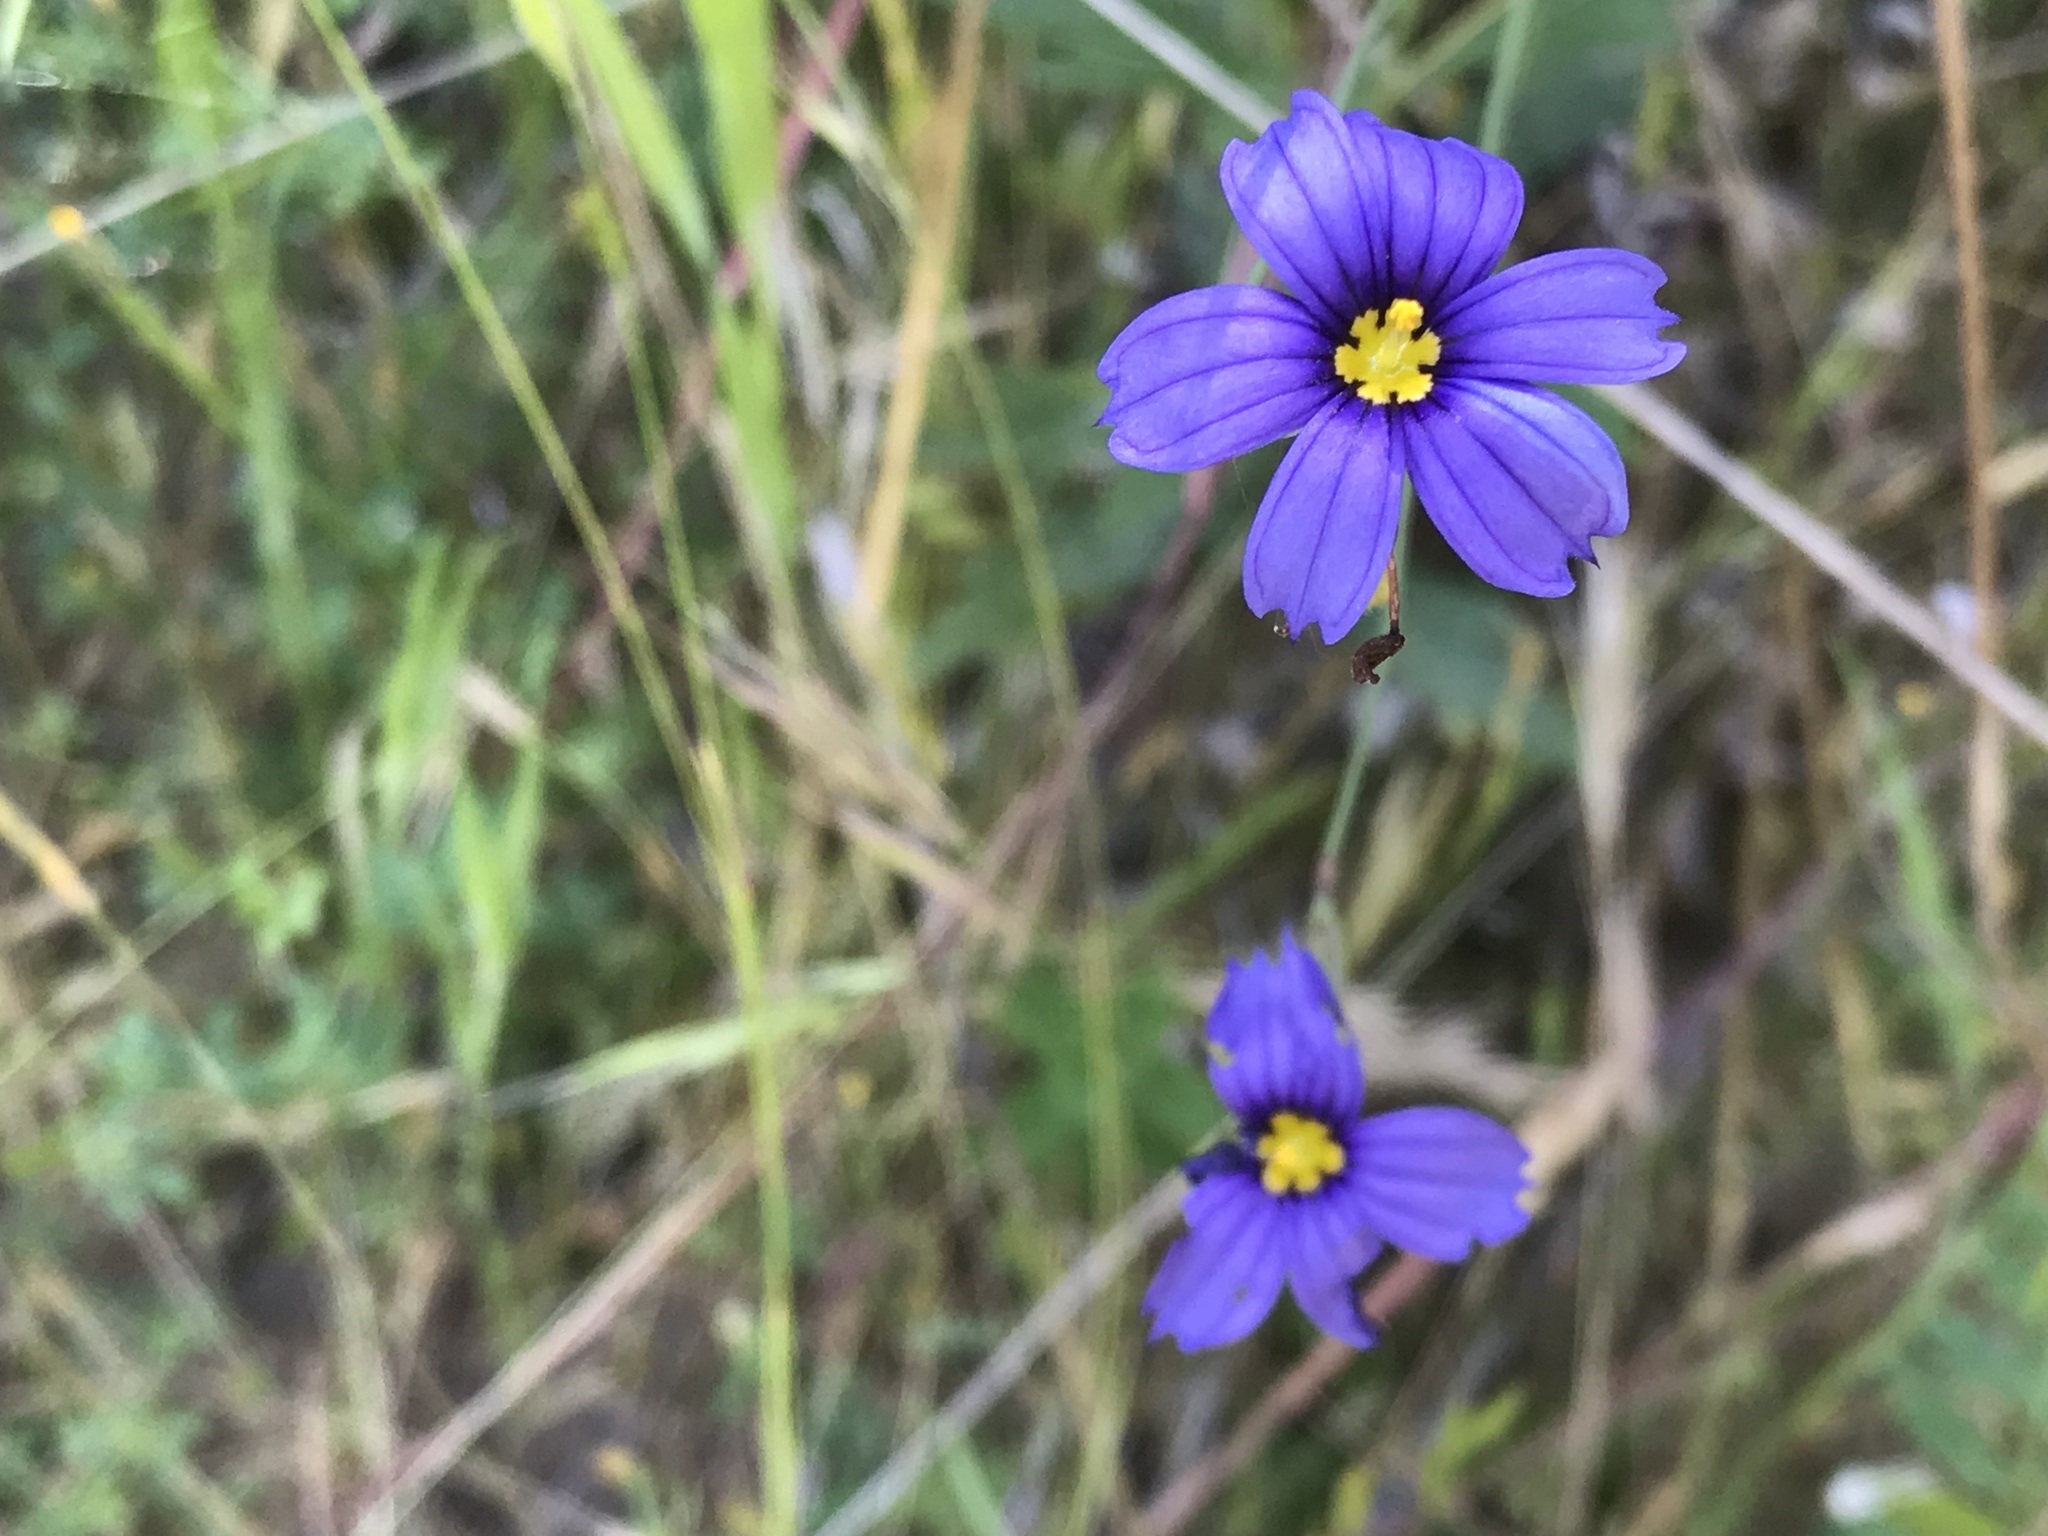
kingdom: Plantae
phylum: Tracheophyta
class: Liliopsida
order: Asparagales
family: Iridaceae
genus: Sisyrinchium
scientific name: Sisyrinchium bellum
